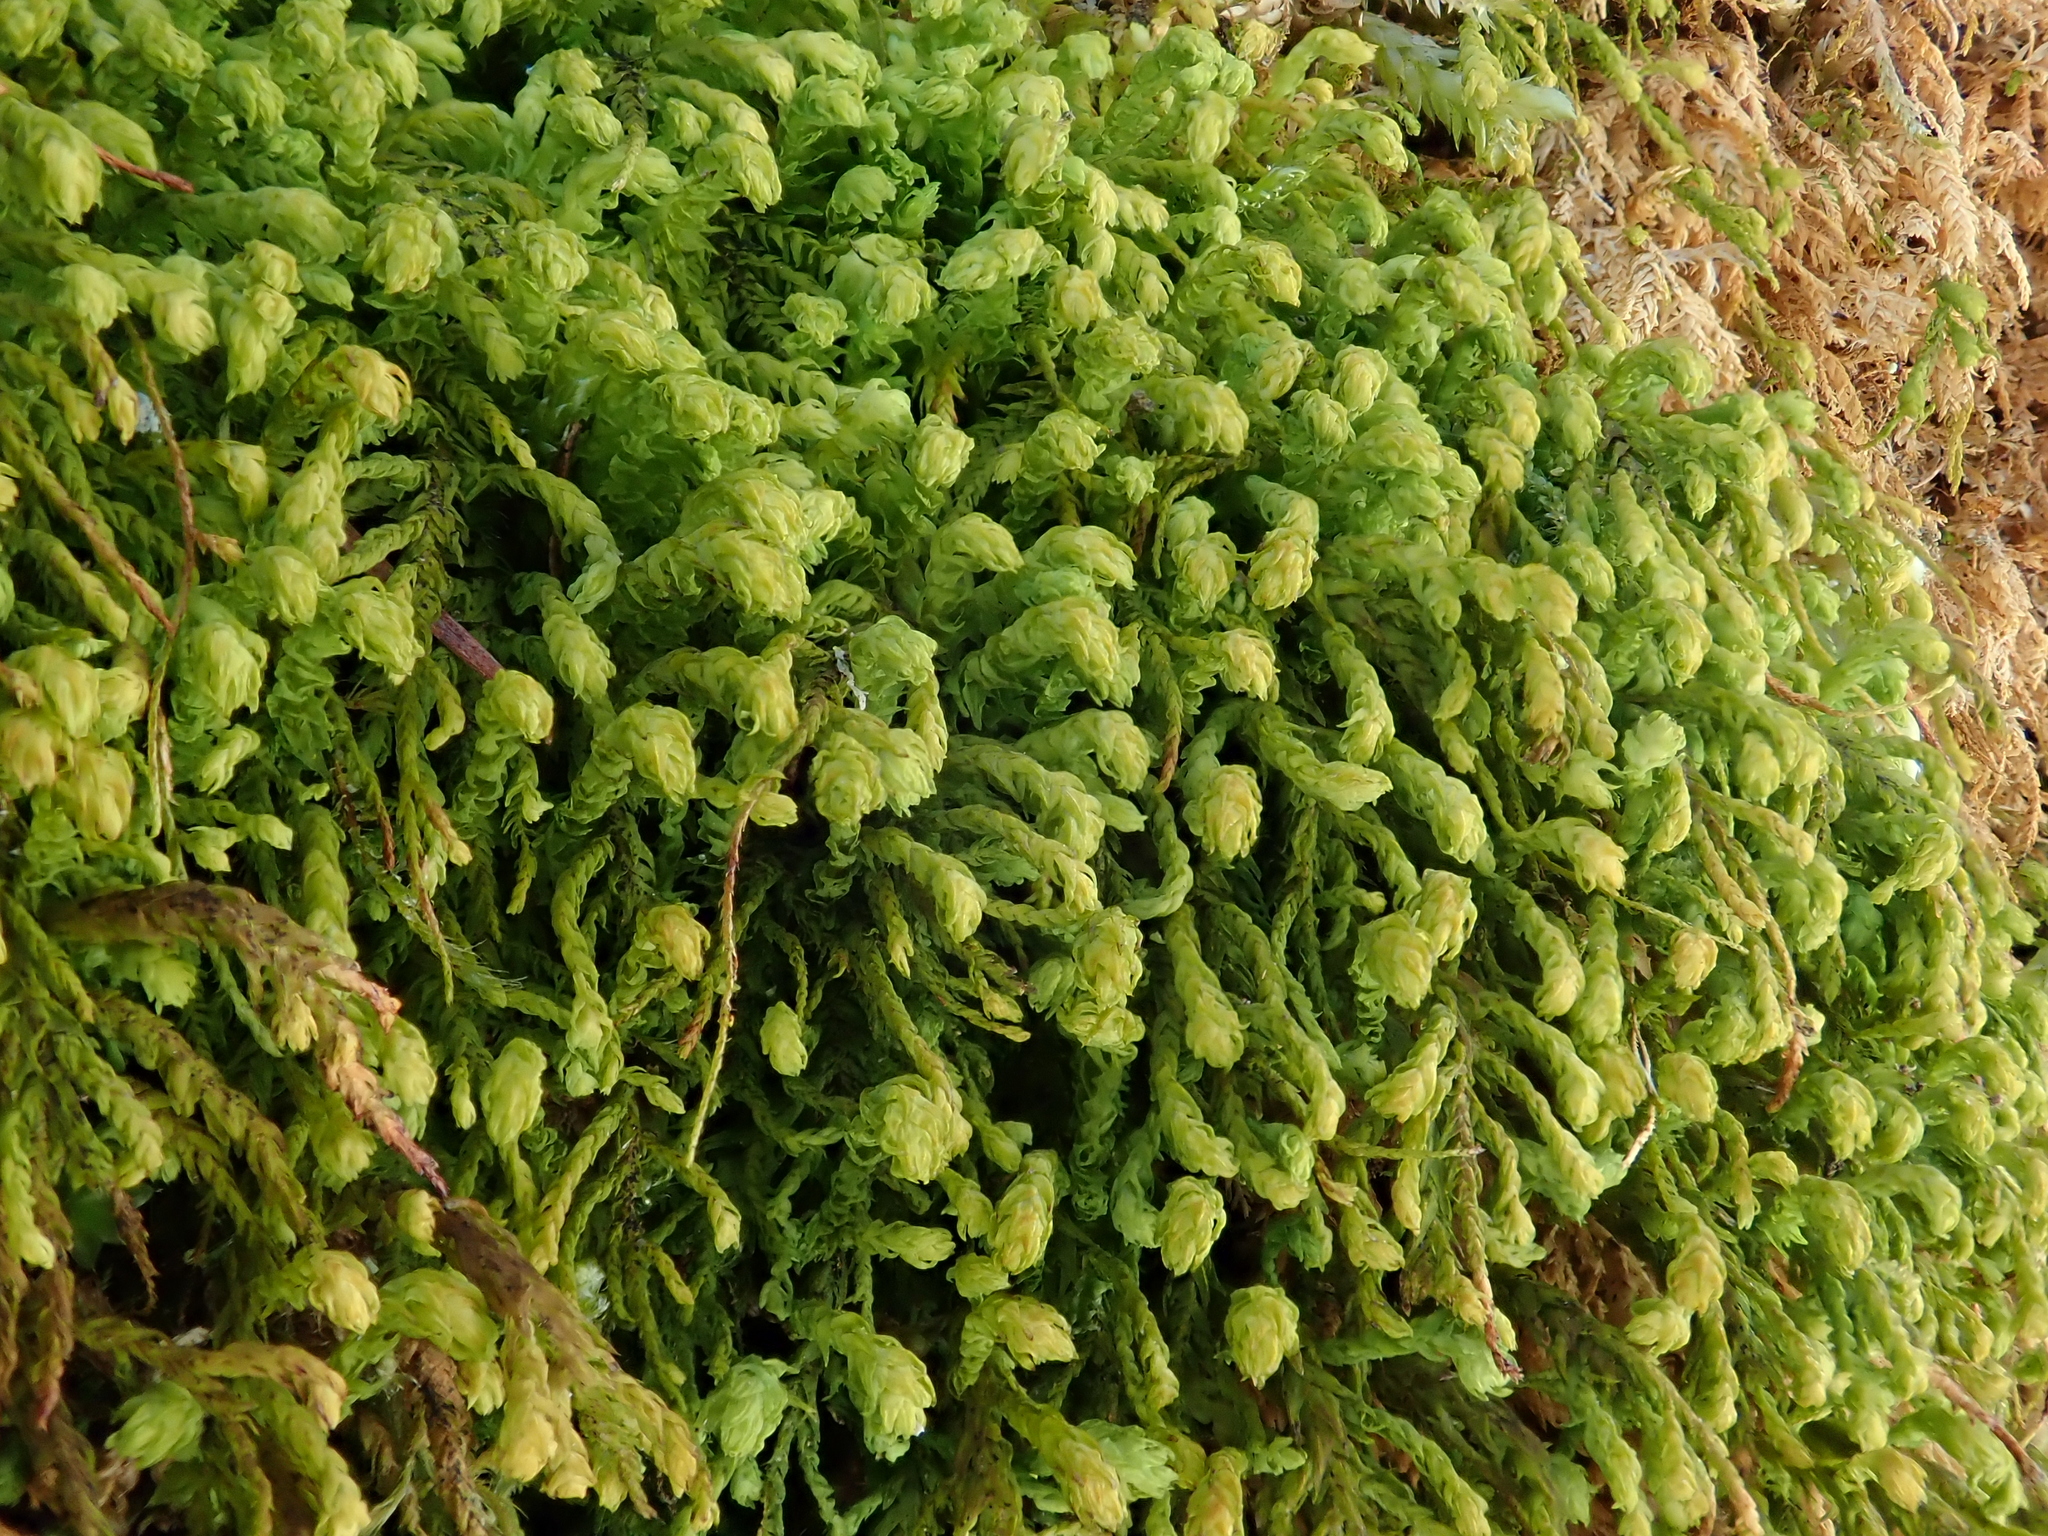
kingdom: Plantae
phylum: Bryophyta
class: Bryopsida
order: Hypnales
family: Neckeraceae
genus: Pseudanomodon
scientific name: Pseudanomodon attenuatus
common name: Tree-skirt moss
